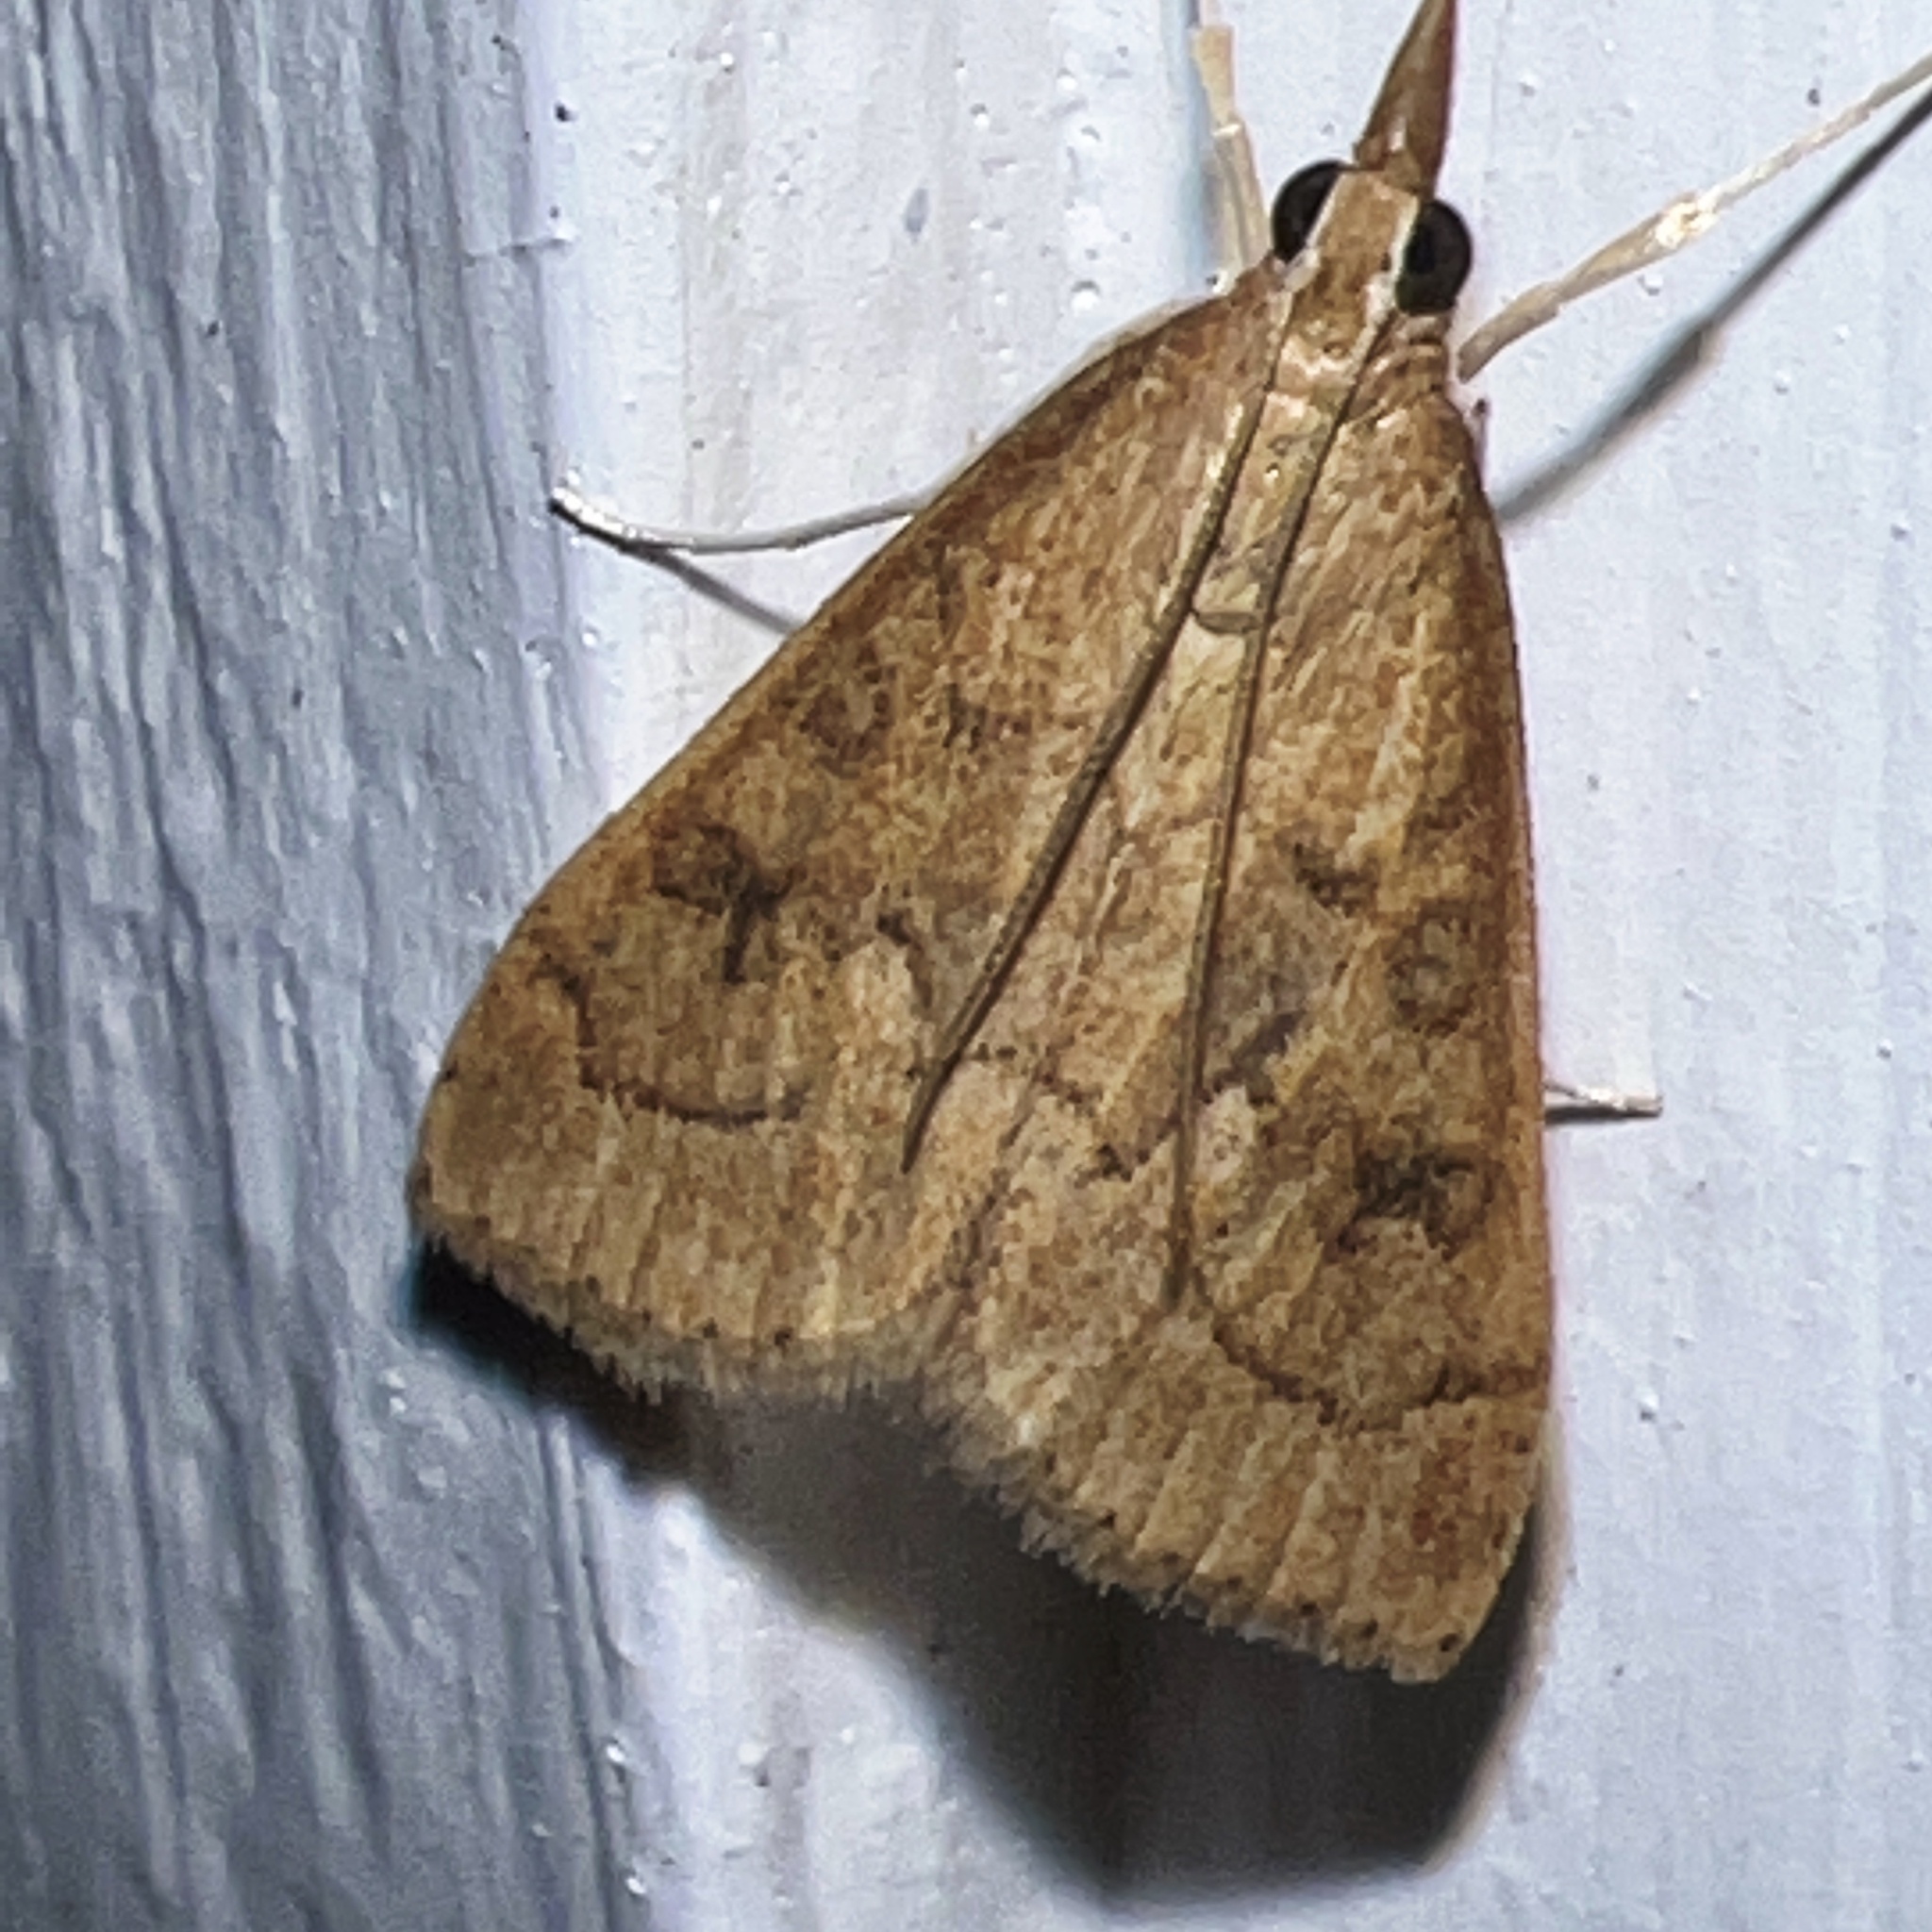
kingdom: Animalia
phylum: Arthropoda
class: Insecta
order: Lepidoptera
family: Crambidae
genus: Udea
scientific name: Udea rubigalis
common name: Celery leaftier moth
